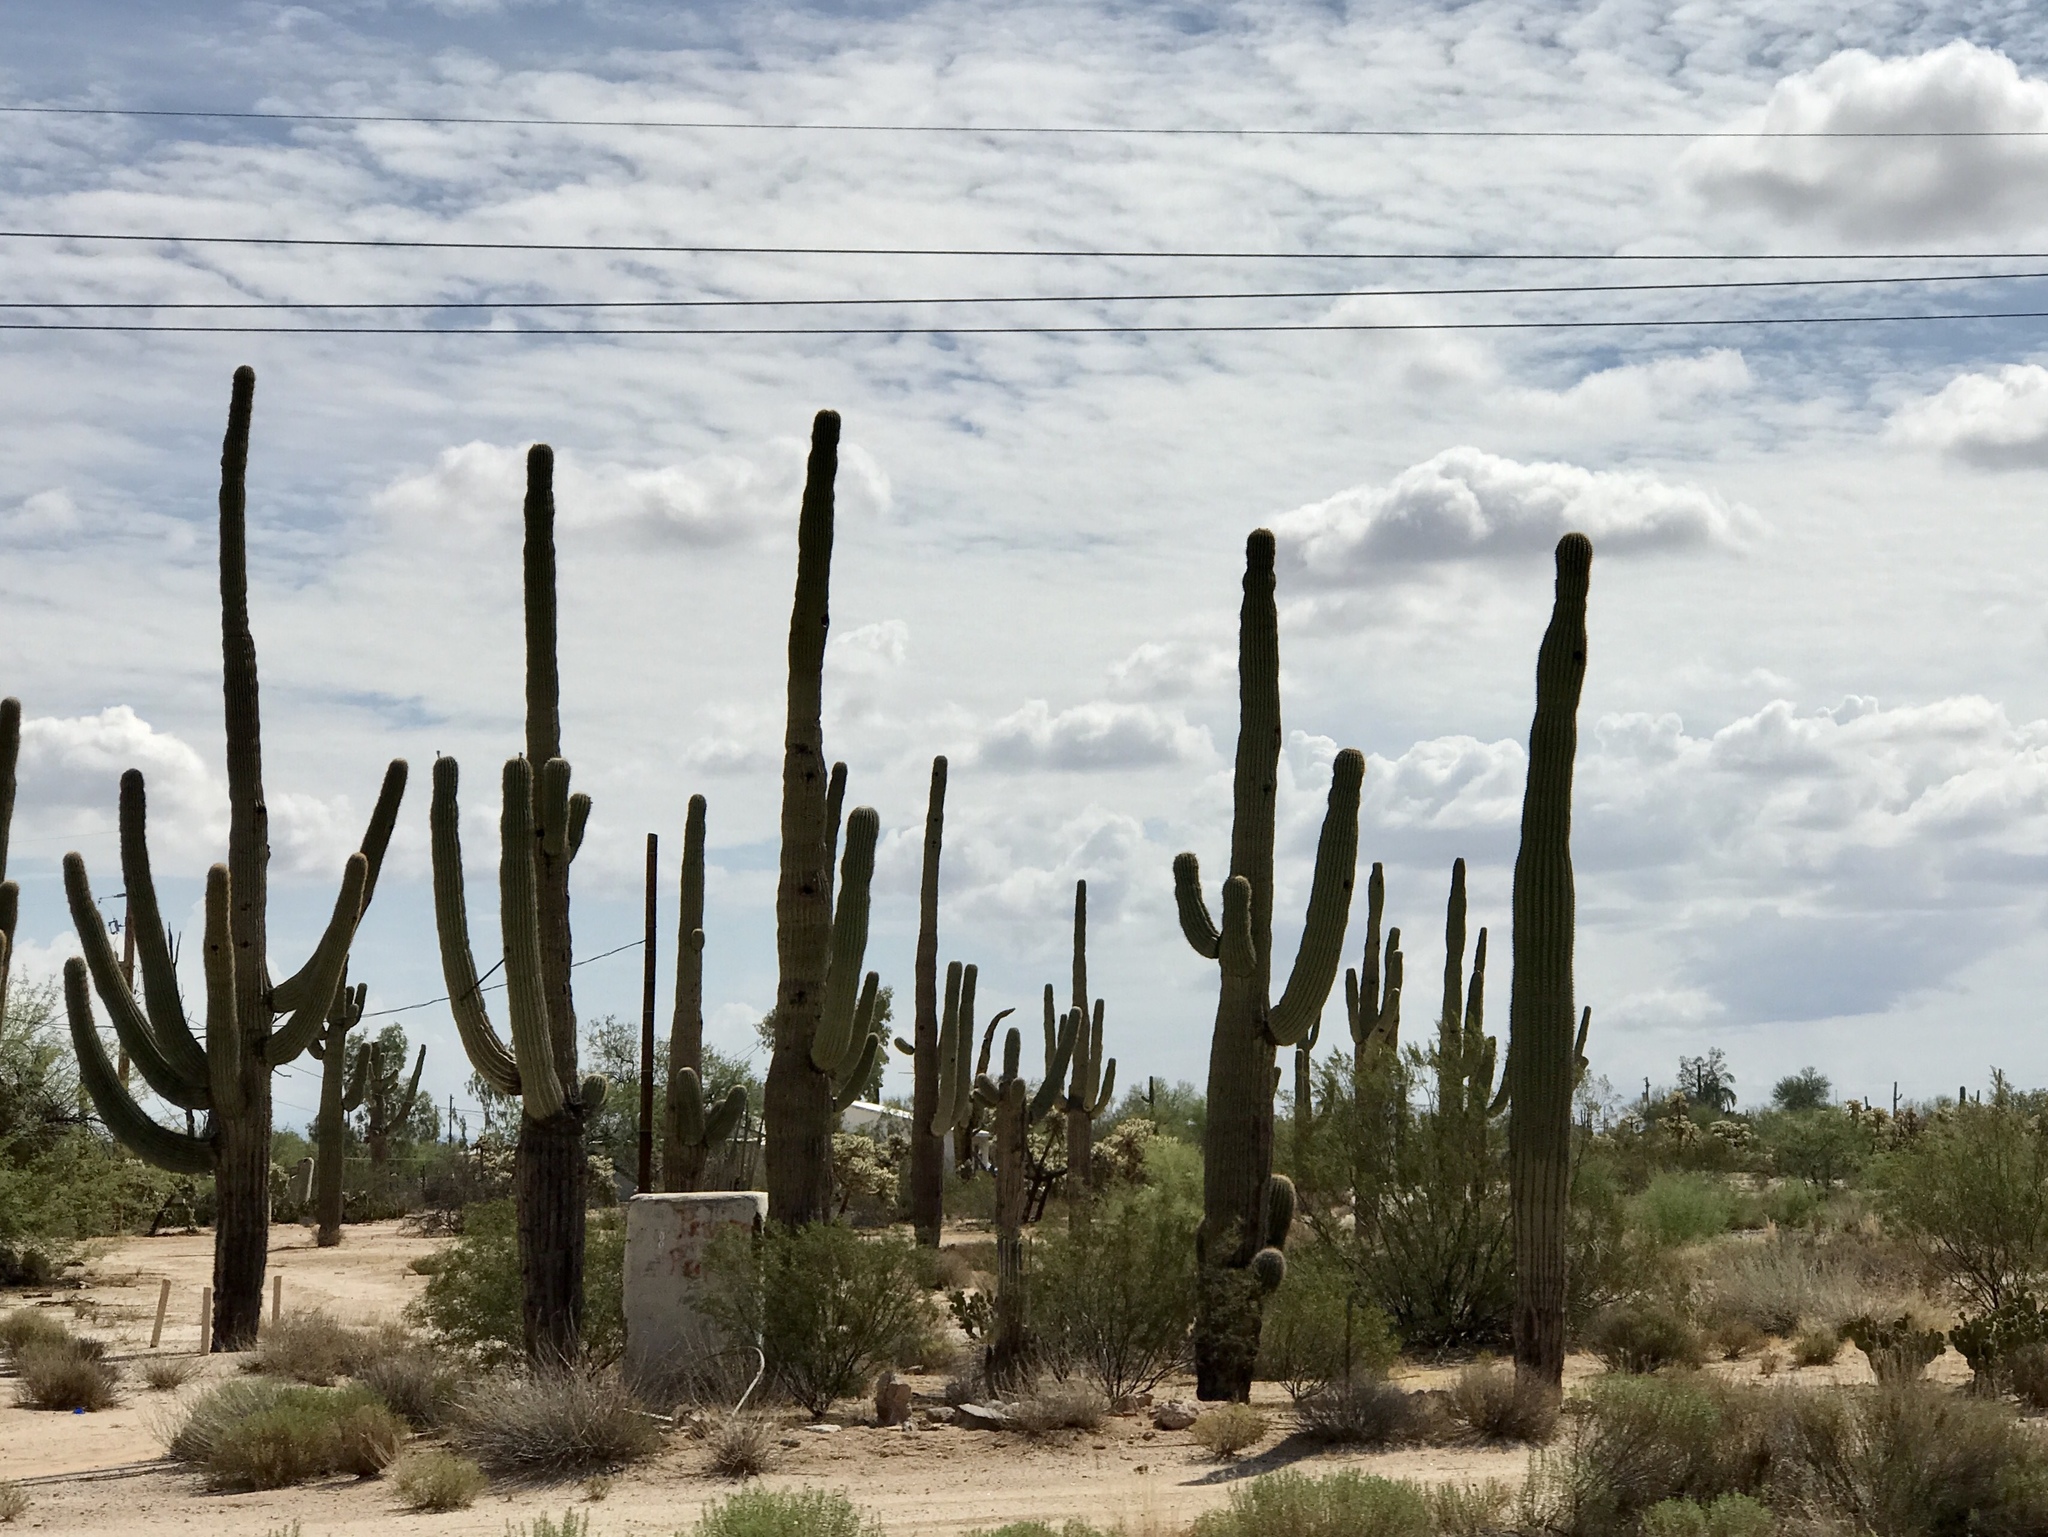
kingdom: Plantae
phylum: Tracheophyta
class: Magnoliopsida
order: Caryophyllales
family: Cactaceae
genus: Carnegiea
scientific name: Carnegiea gigantea
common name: Saguaro
